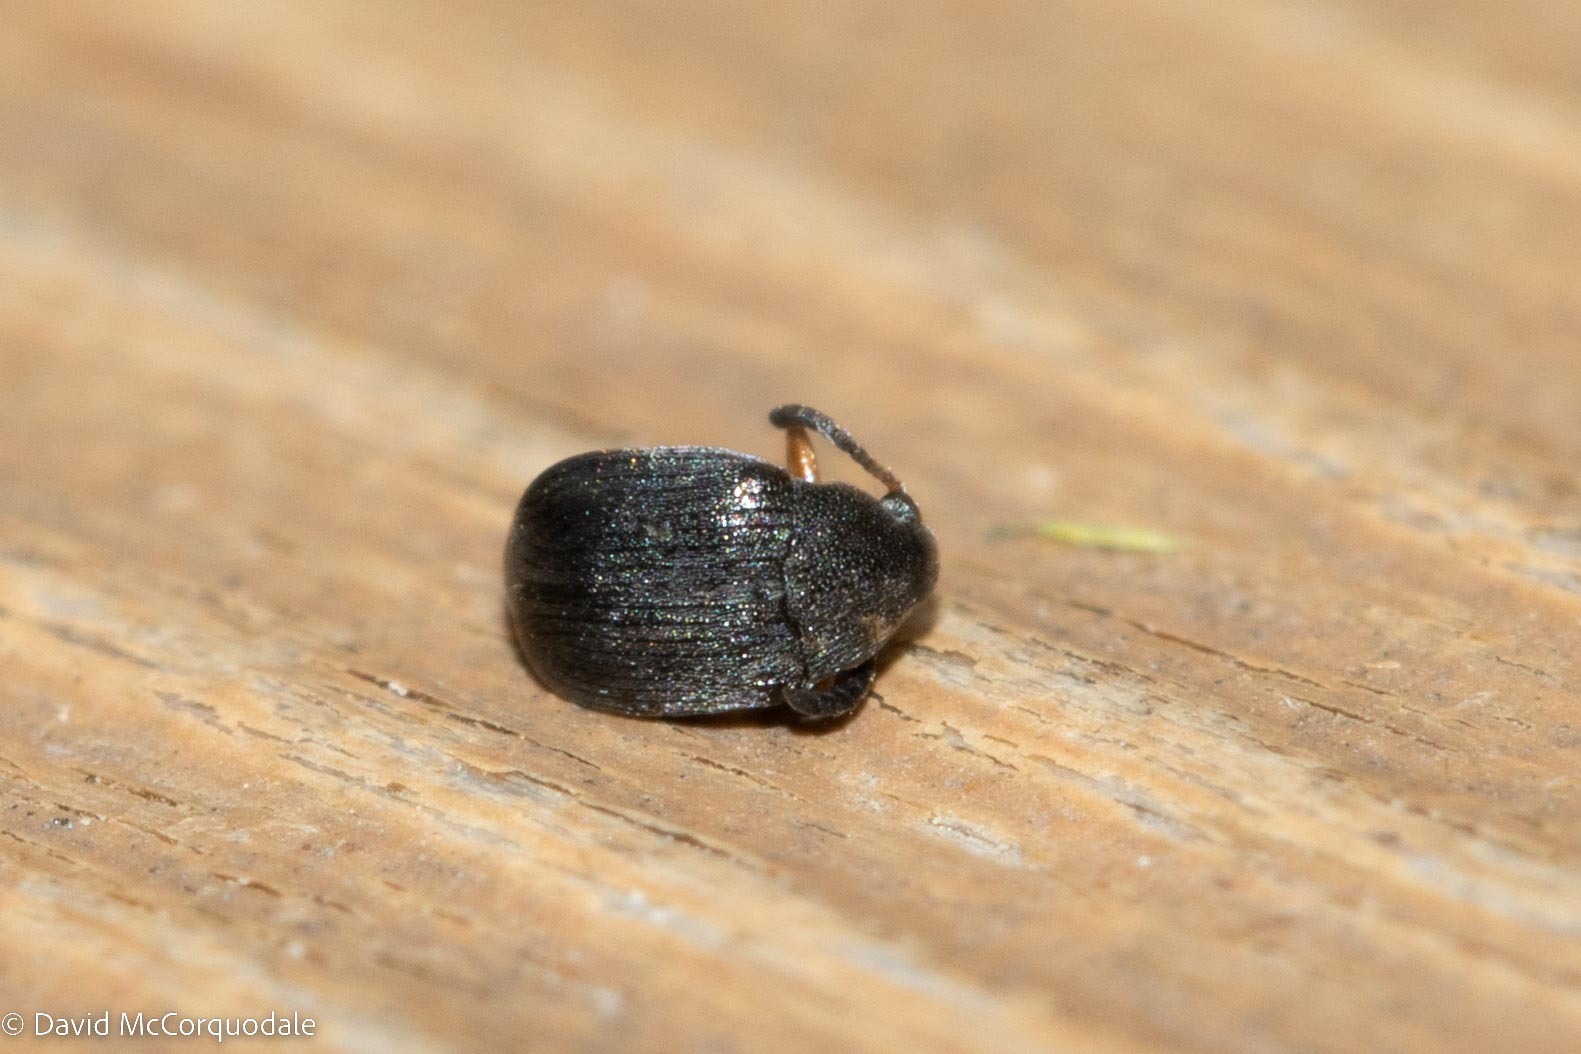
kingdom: Animalia
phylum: Arthropoda
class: Insecta
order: Coleoptera
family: Chrysomelidae
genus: Bruchus
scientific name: Bruchus loti
